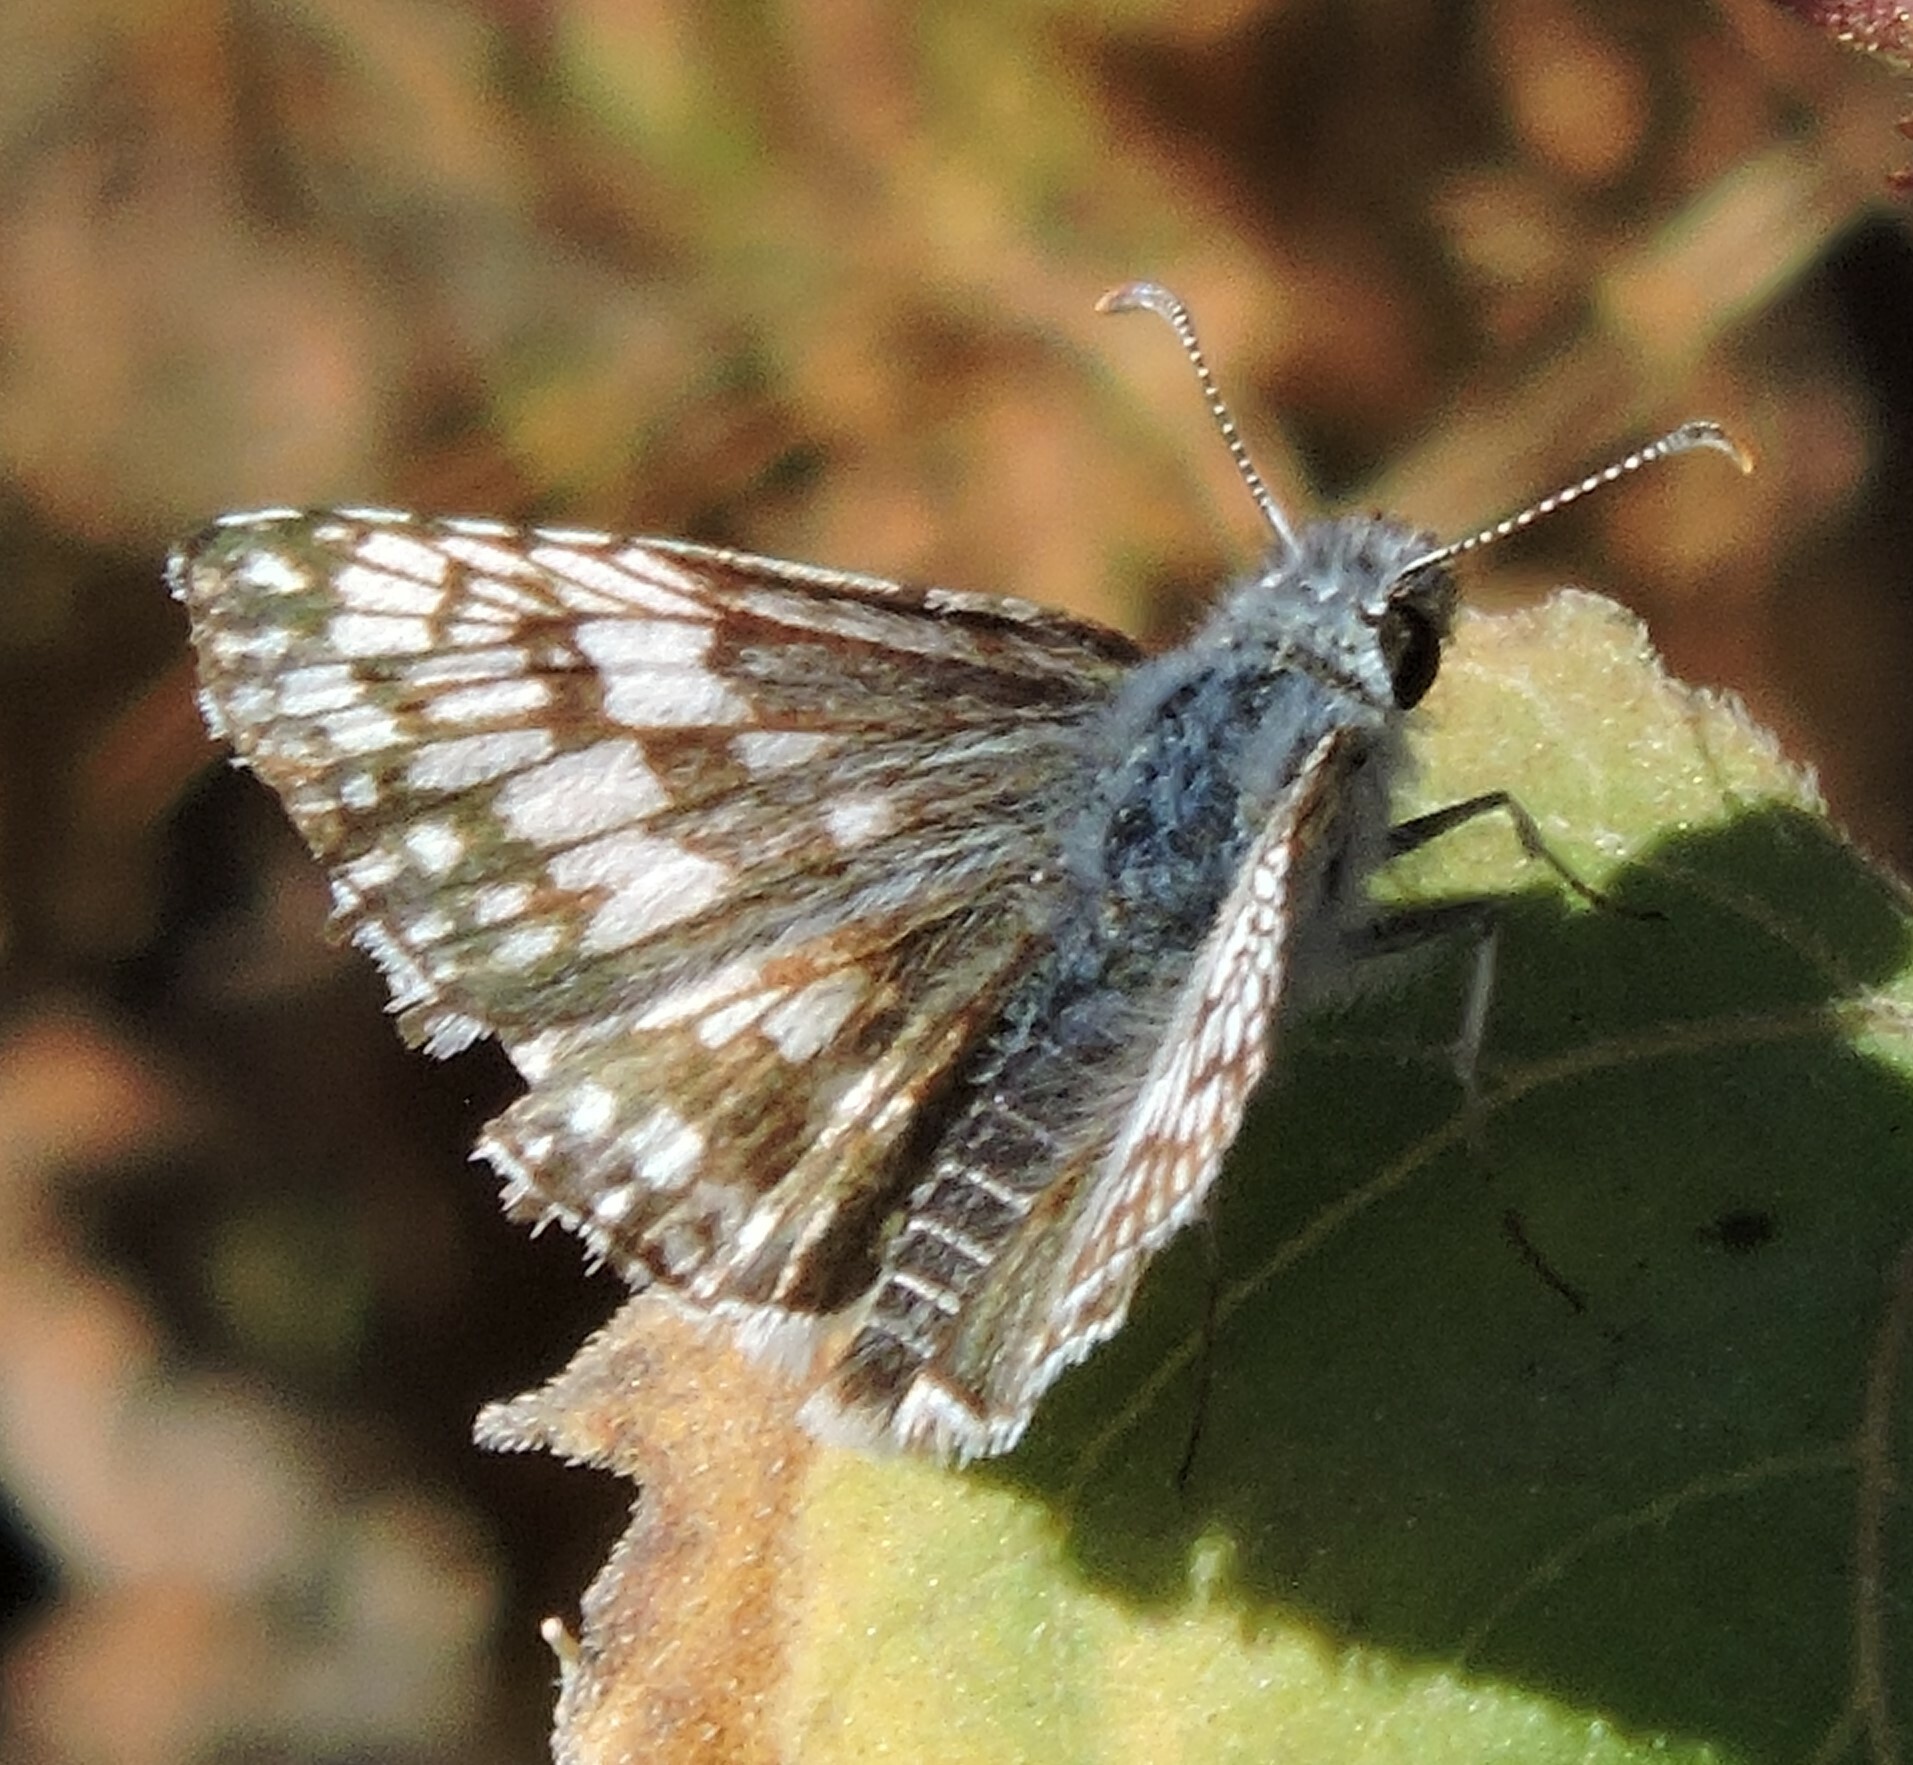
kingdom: Animalia
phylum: Arthropoda
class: Insecta
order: Lepidoptera
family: Hesperiidae
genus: Burnsius
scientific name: Burnsius communis
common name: Common checkered-skipper
